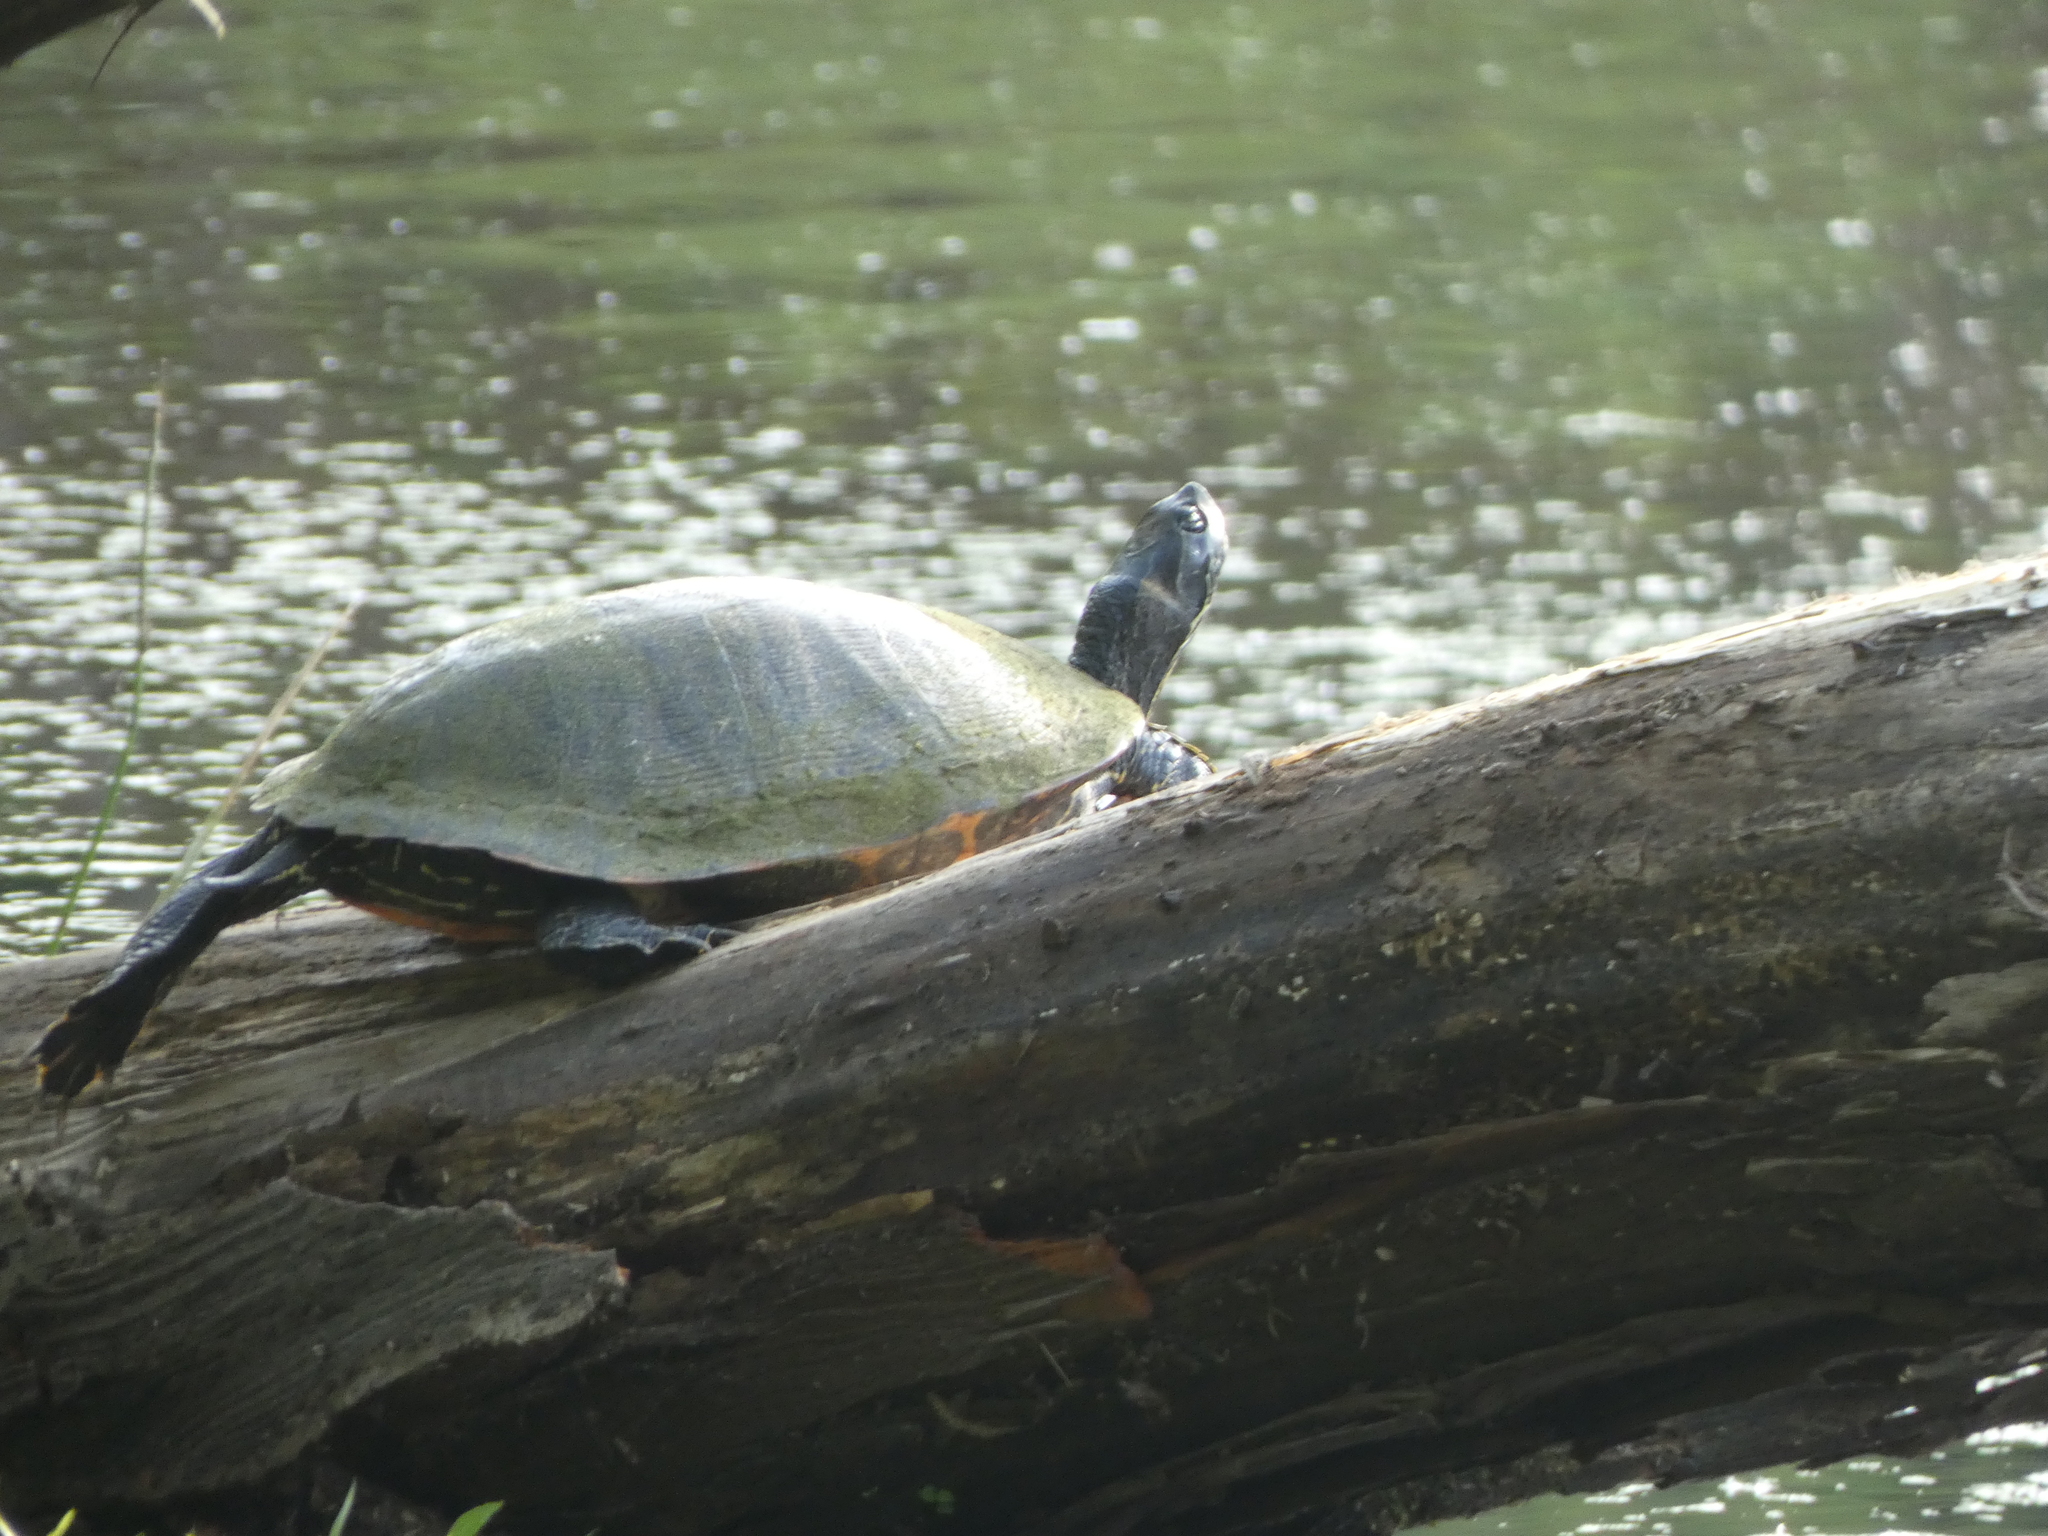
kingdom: Animalia
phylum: Chordata
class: Testudines
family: Emydidae
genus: Pseudemys
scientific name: Pseudemys rubriventris
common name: American red-bellied turtle
